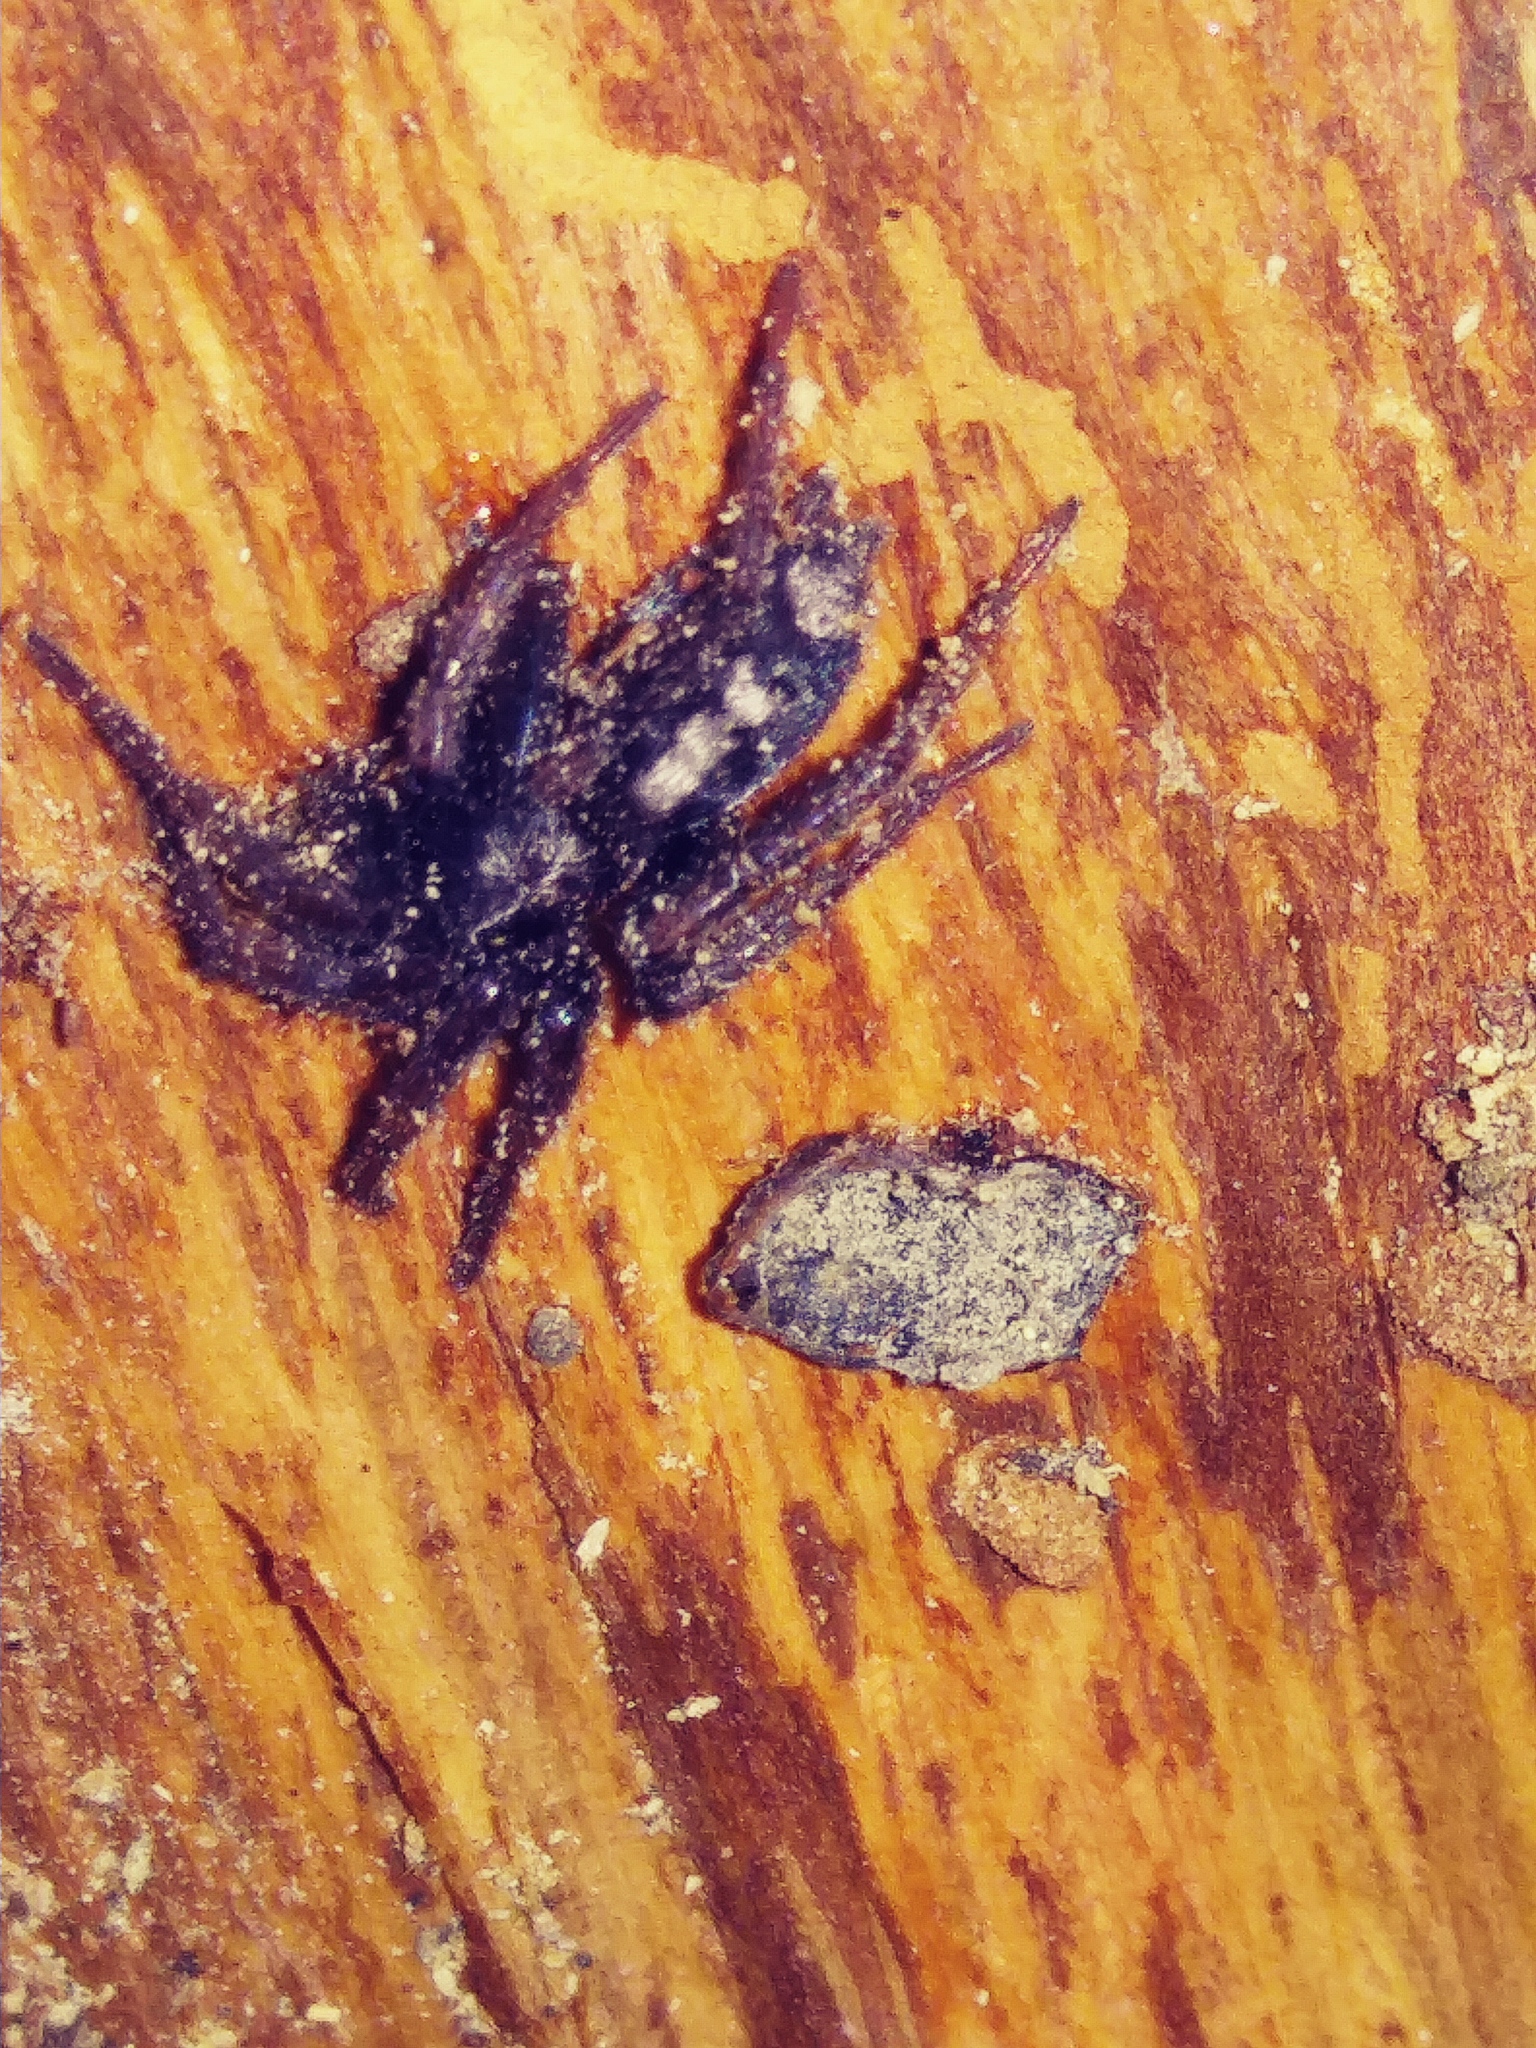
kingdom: Animalia
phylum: Arthropoda
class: Arachnida
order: Araneae
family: Gnaphosidae
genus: Herpyllus
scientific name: Herpyllus ecclesiasticus
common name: Eastern parson spider
